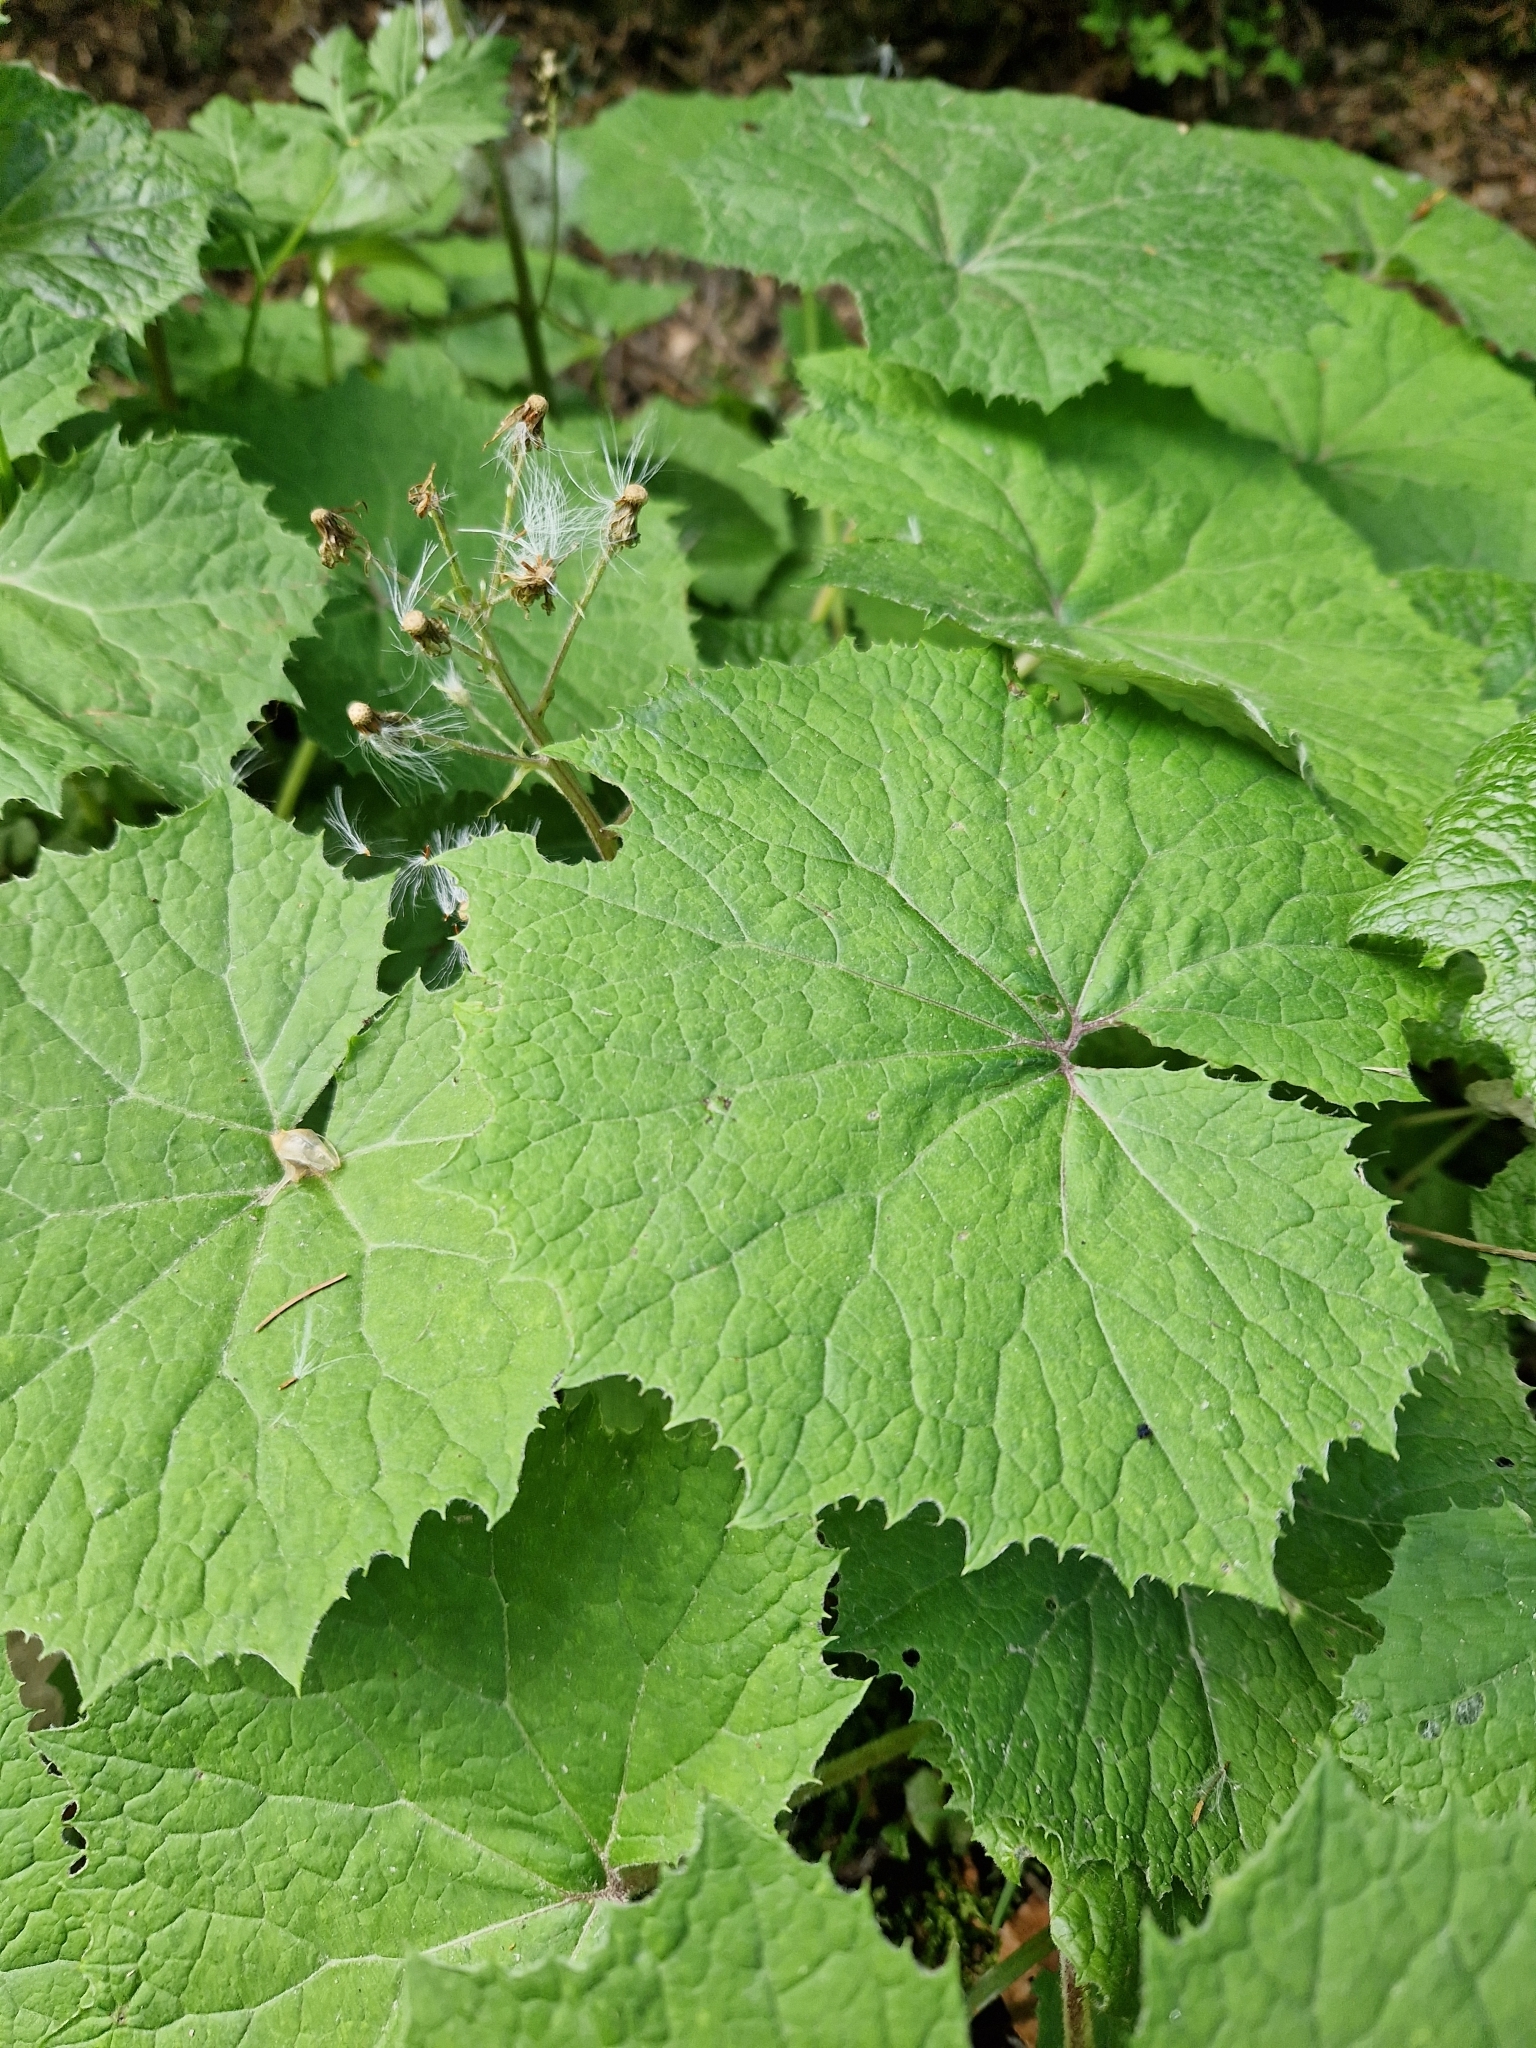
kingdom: Plantae
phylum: Tracheophyta
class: Magnoliopsida
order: Asterales
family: Asteraceae
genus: Petasites
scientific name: Petasites albus
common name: White butterbur
